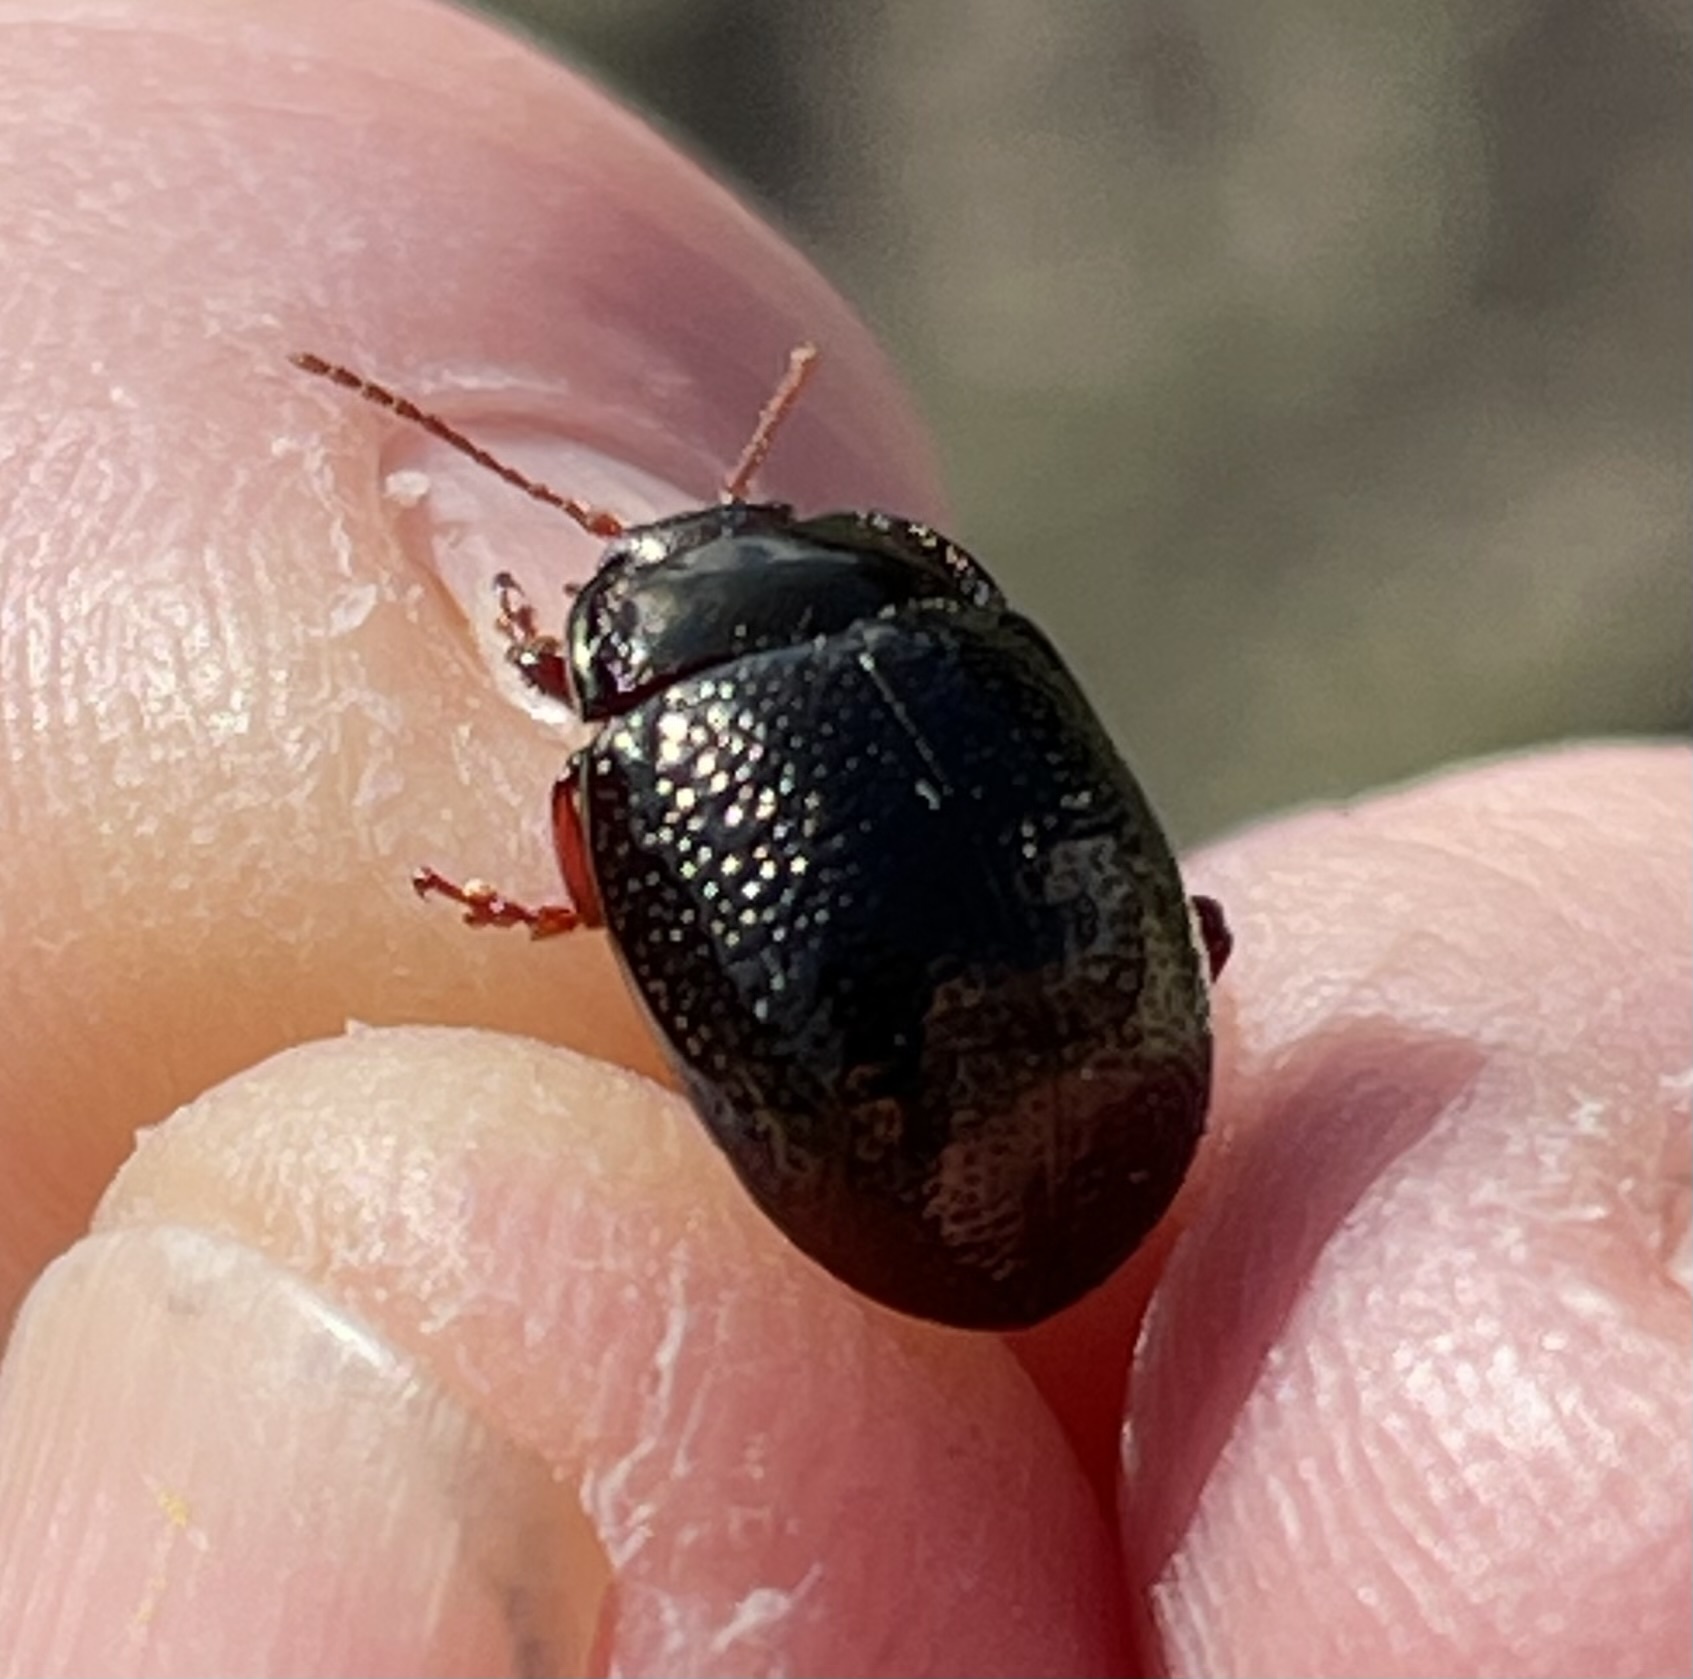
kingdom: Animalia
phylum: Arthropoda
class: Insecta
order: Coleoptera
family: Chrysomelidae
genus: Chrysolina
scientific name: Chrysolina bankii
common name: Leaf beetle
